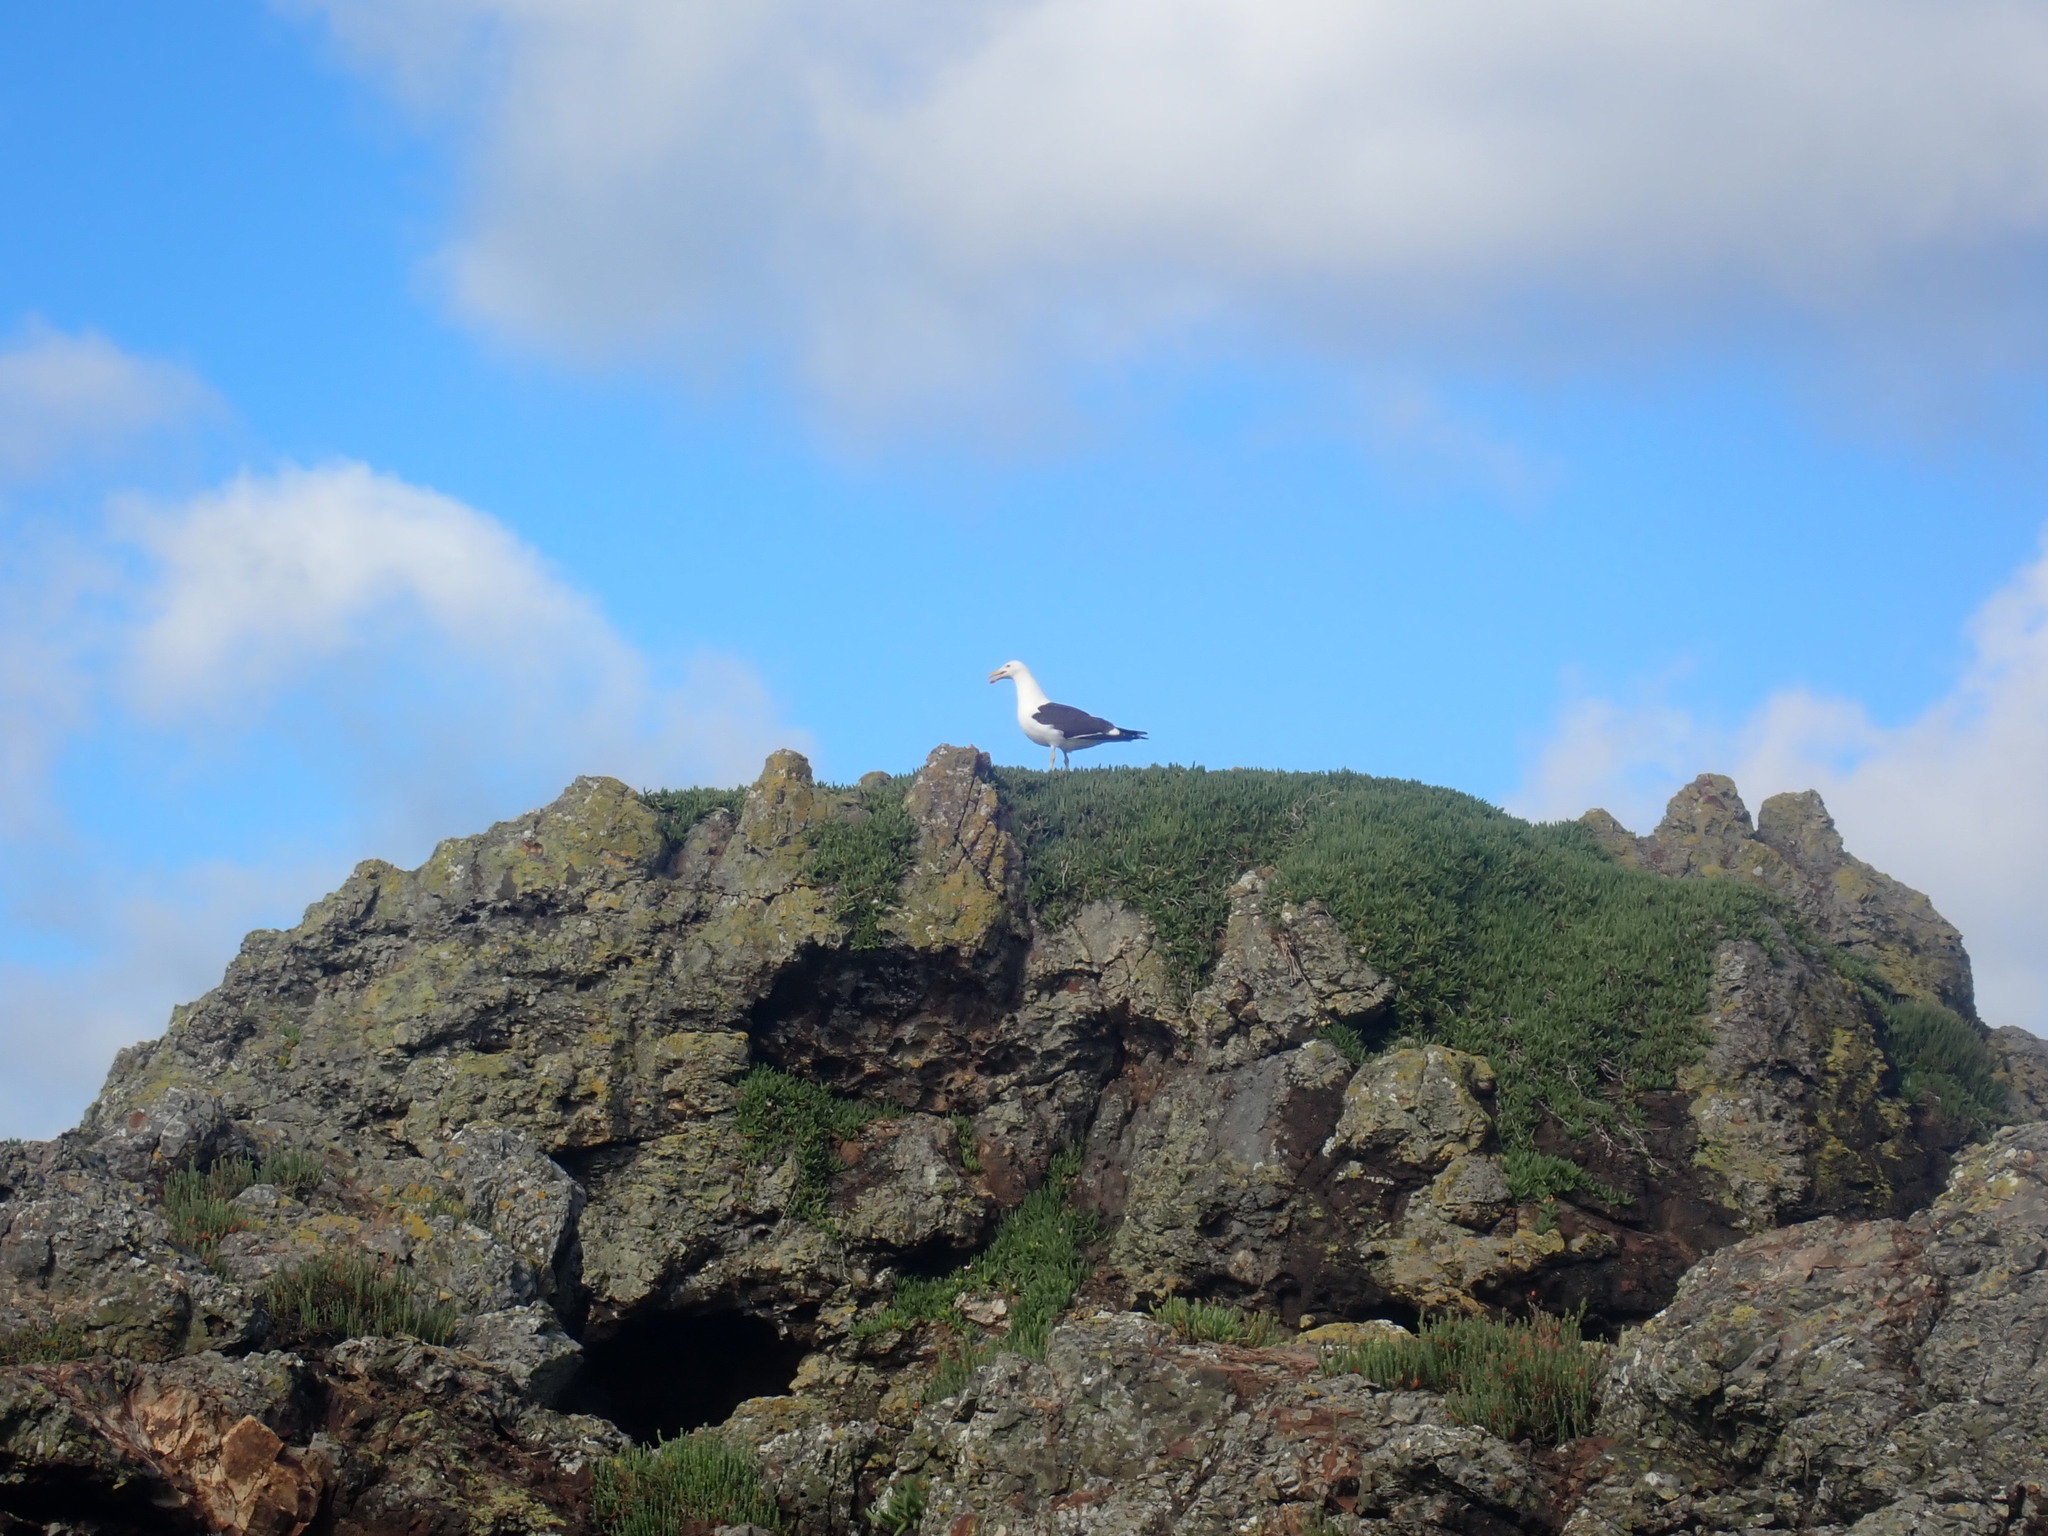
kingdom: Animalia
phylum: Chordata
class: Aves
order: Charadriiformes
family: Laridae
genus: Larus
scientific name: Larus dominicanus
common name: Kelp gull
